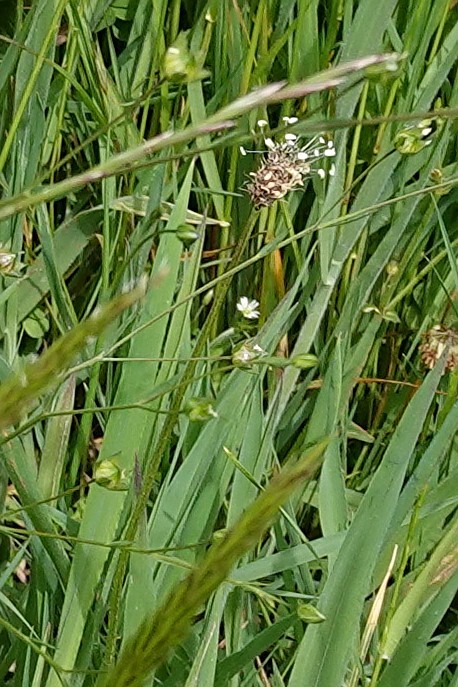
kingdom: Plantae
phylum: Tracheophyta
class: Magnoliopsida
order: Lamiales
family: Plantaginaceae
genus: Plantago
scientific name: Plantago lanceolata
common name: Ribwort plantain
